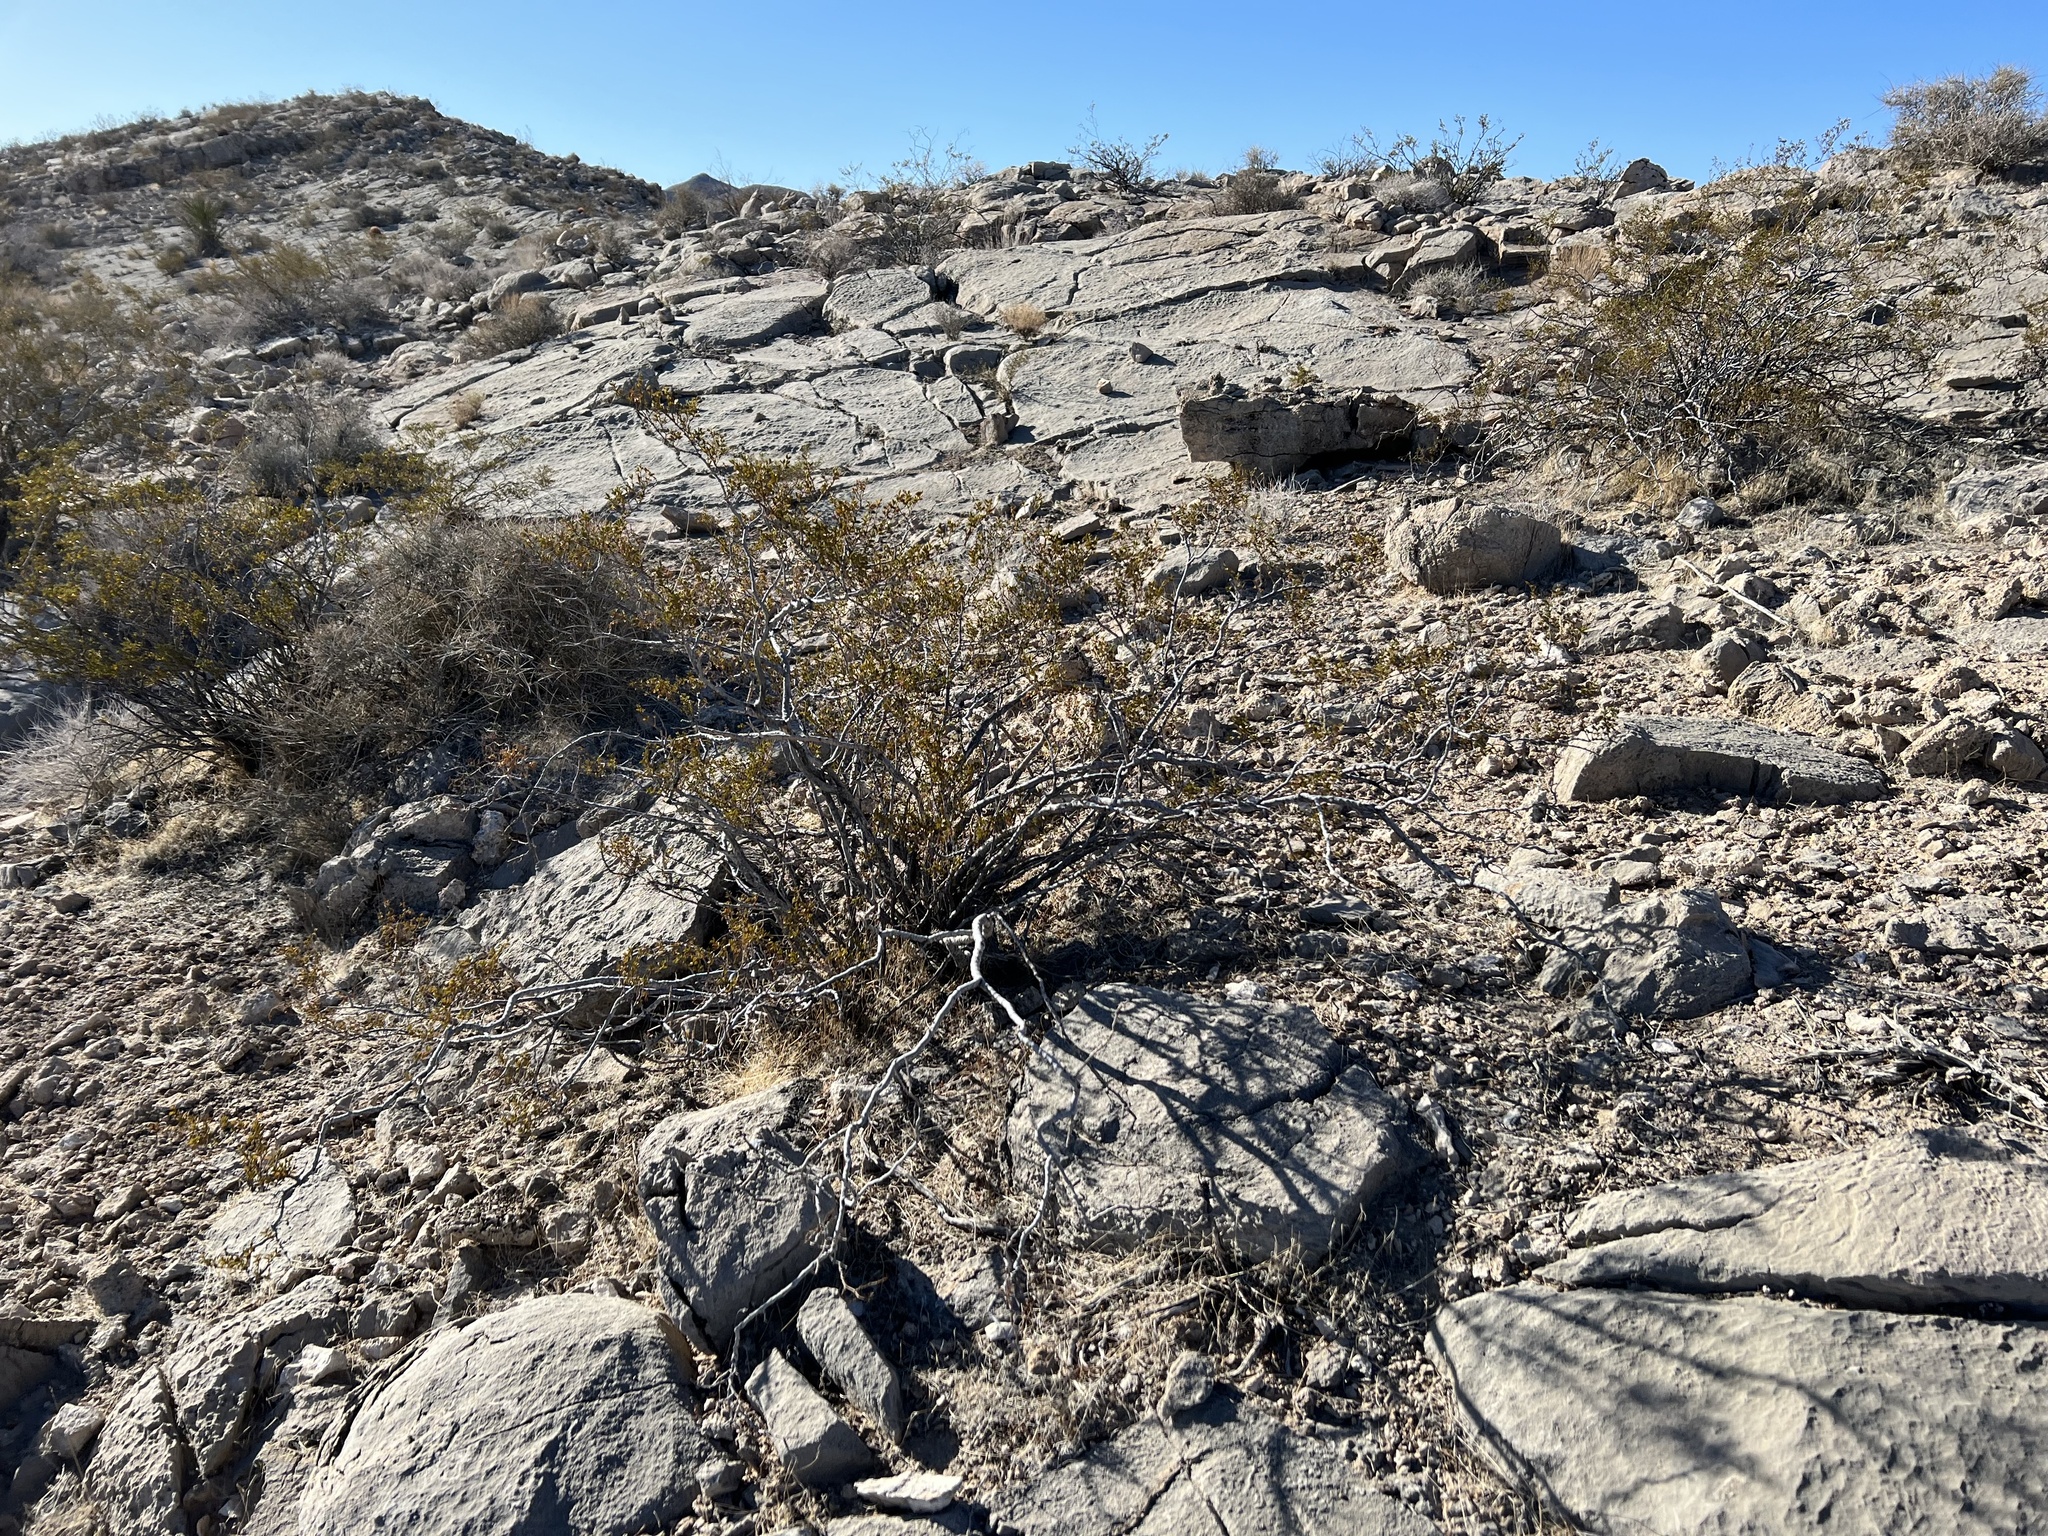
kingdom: Plantae
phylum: Tracheophyta
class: Magnoliopsida
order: Zygophyllales
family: Zygophyllaceae
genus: Larrea
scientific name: Larrea tridentata
